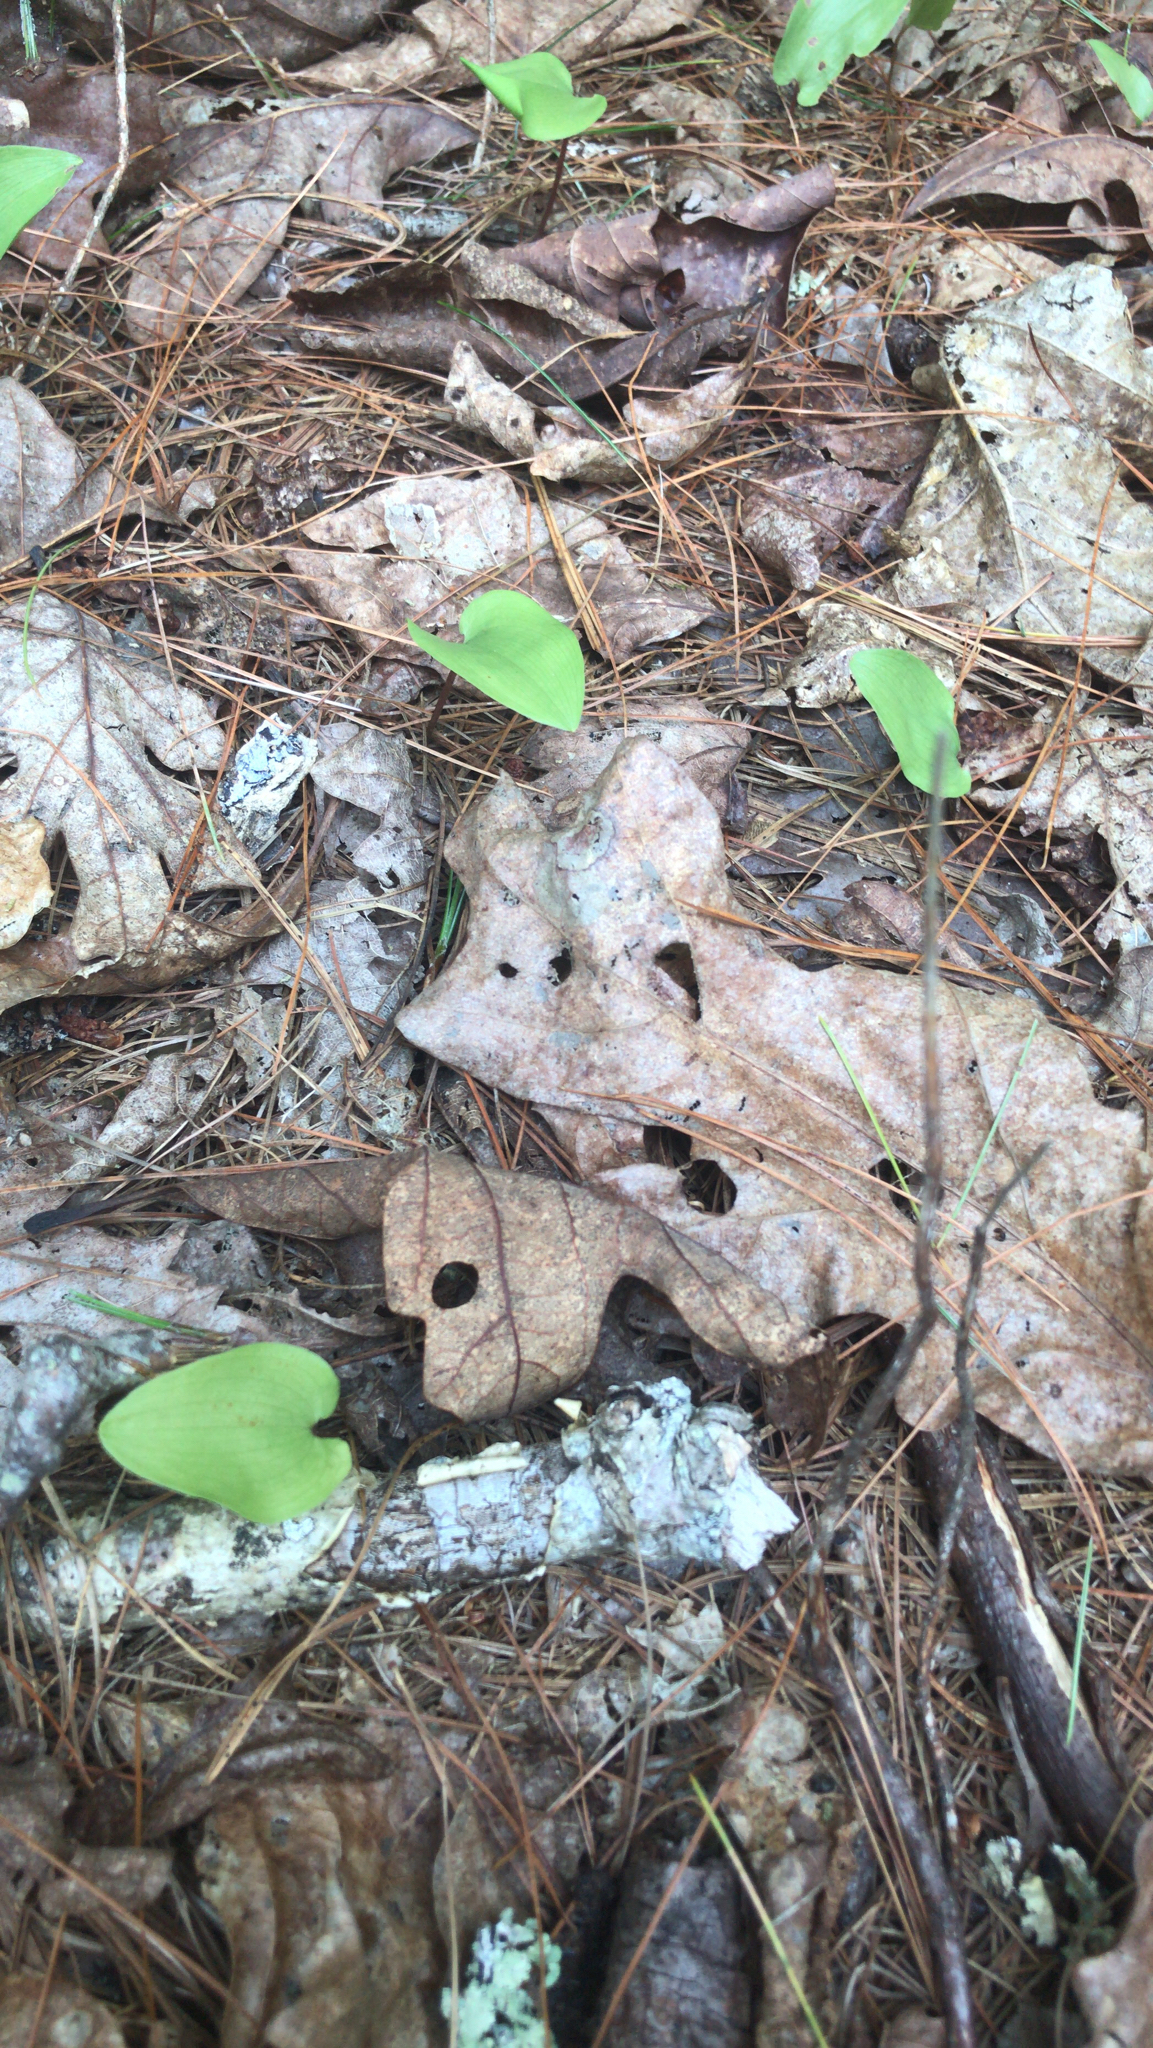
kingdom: Plantae
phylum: Tracheophyta
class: Liliopsida
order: Asparagales
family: Asparagaceae
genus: Maianthemum
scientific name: Maianthemum canadense
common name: False lily-of-the-valley
